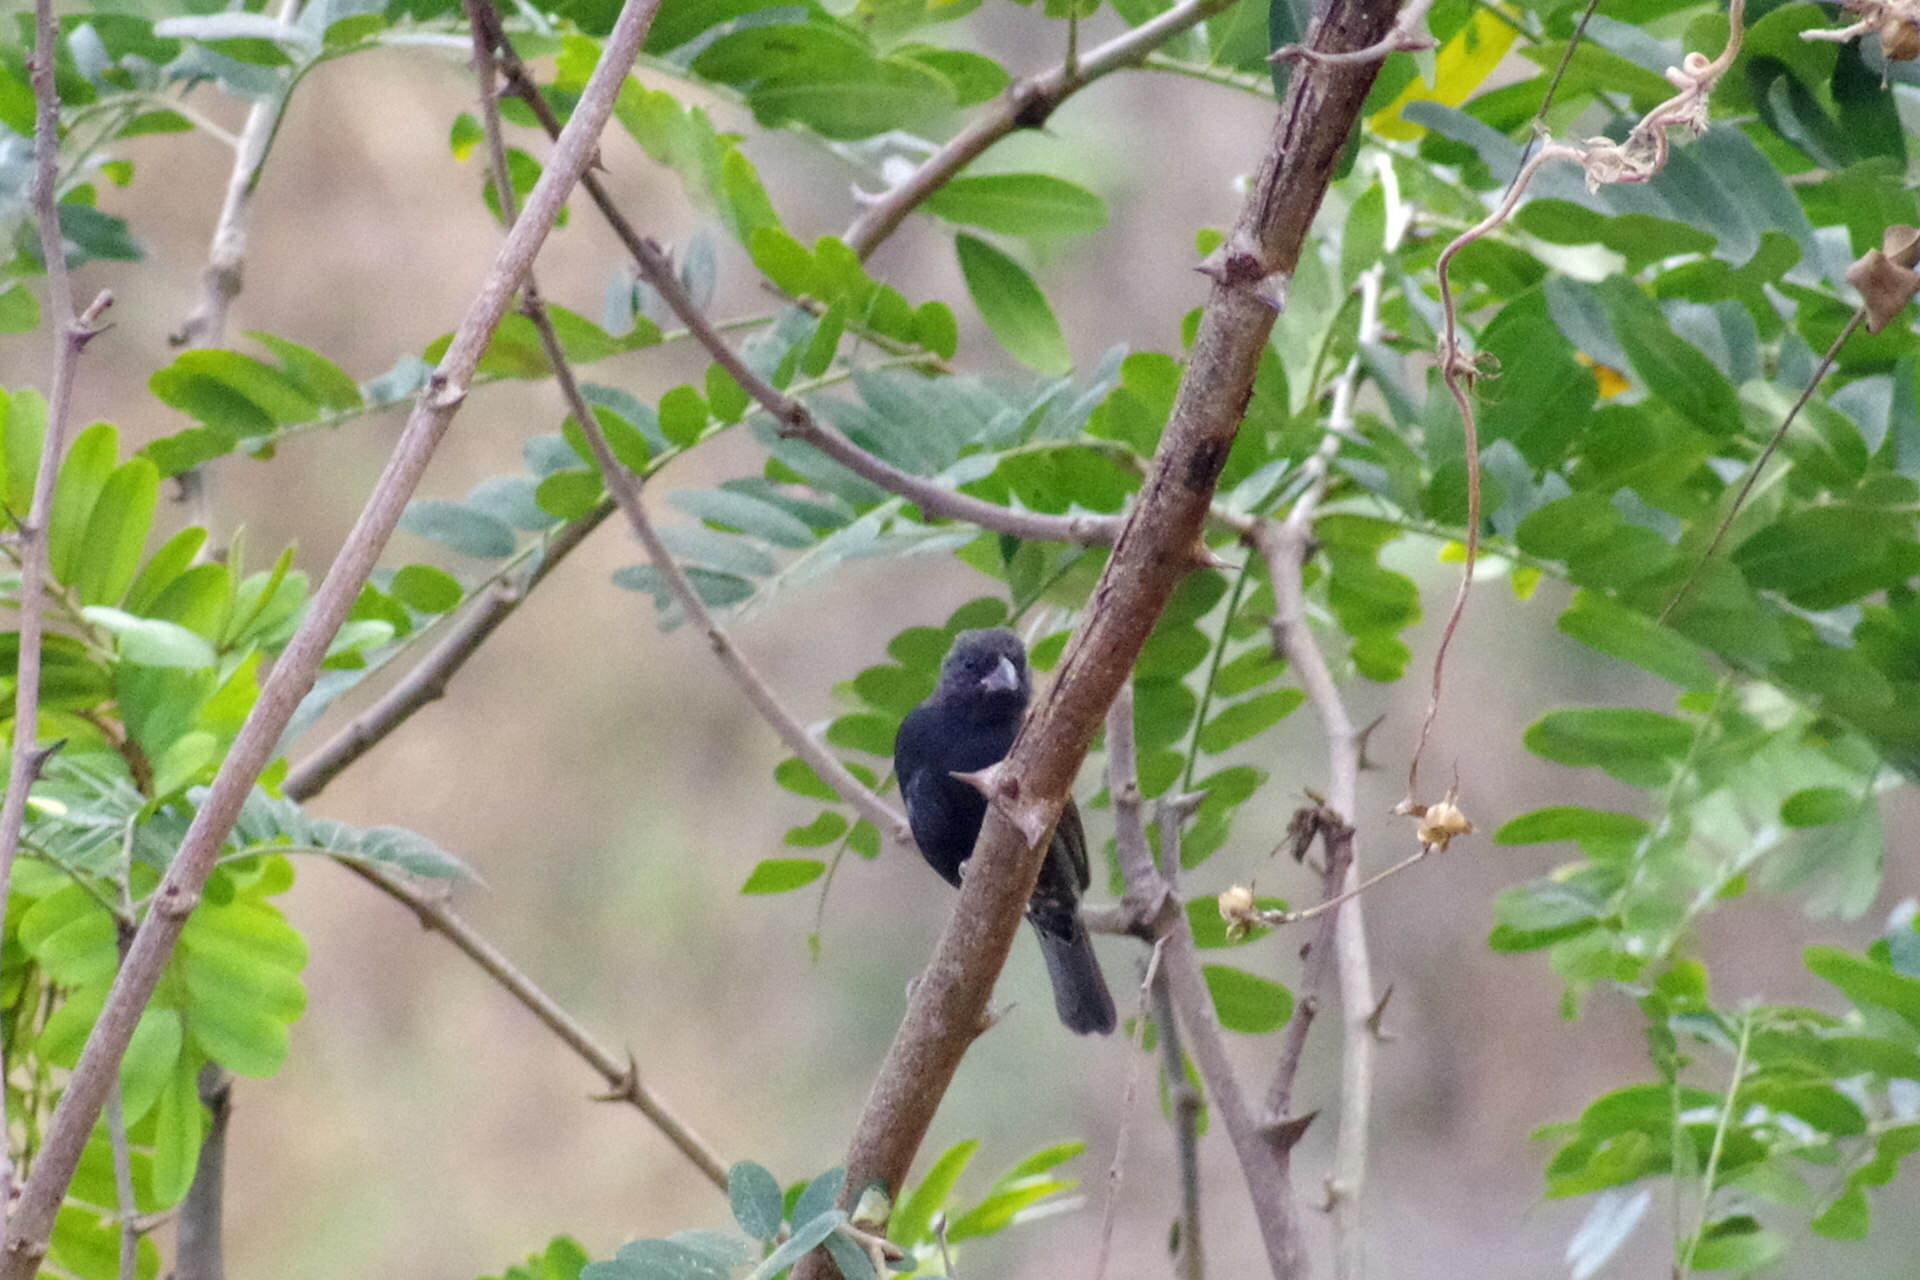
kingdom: Animalia
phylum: Chordata
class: Aves
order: Passeriformes
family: Thraupidae
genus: Melanospiza
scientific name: Melanospiza bicolor
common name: Black-faced grassquit
